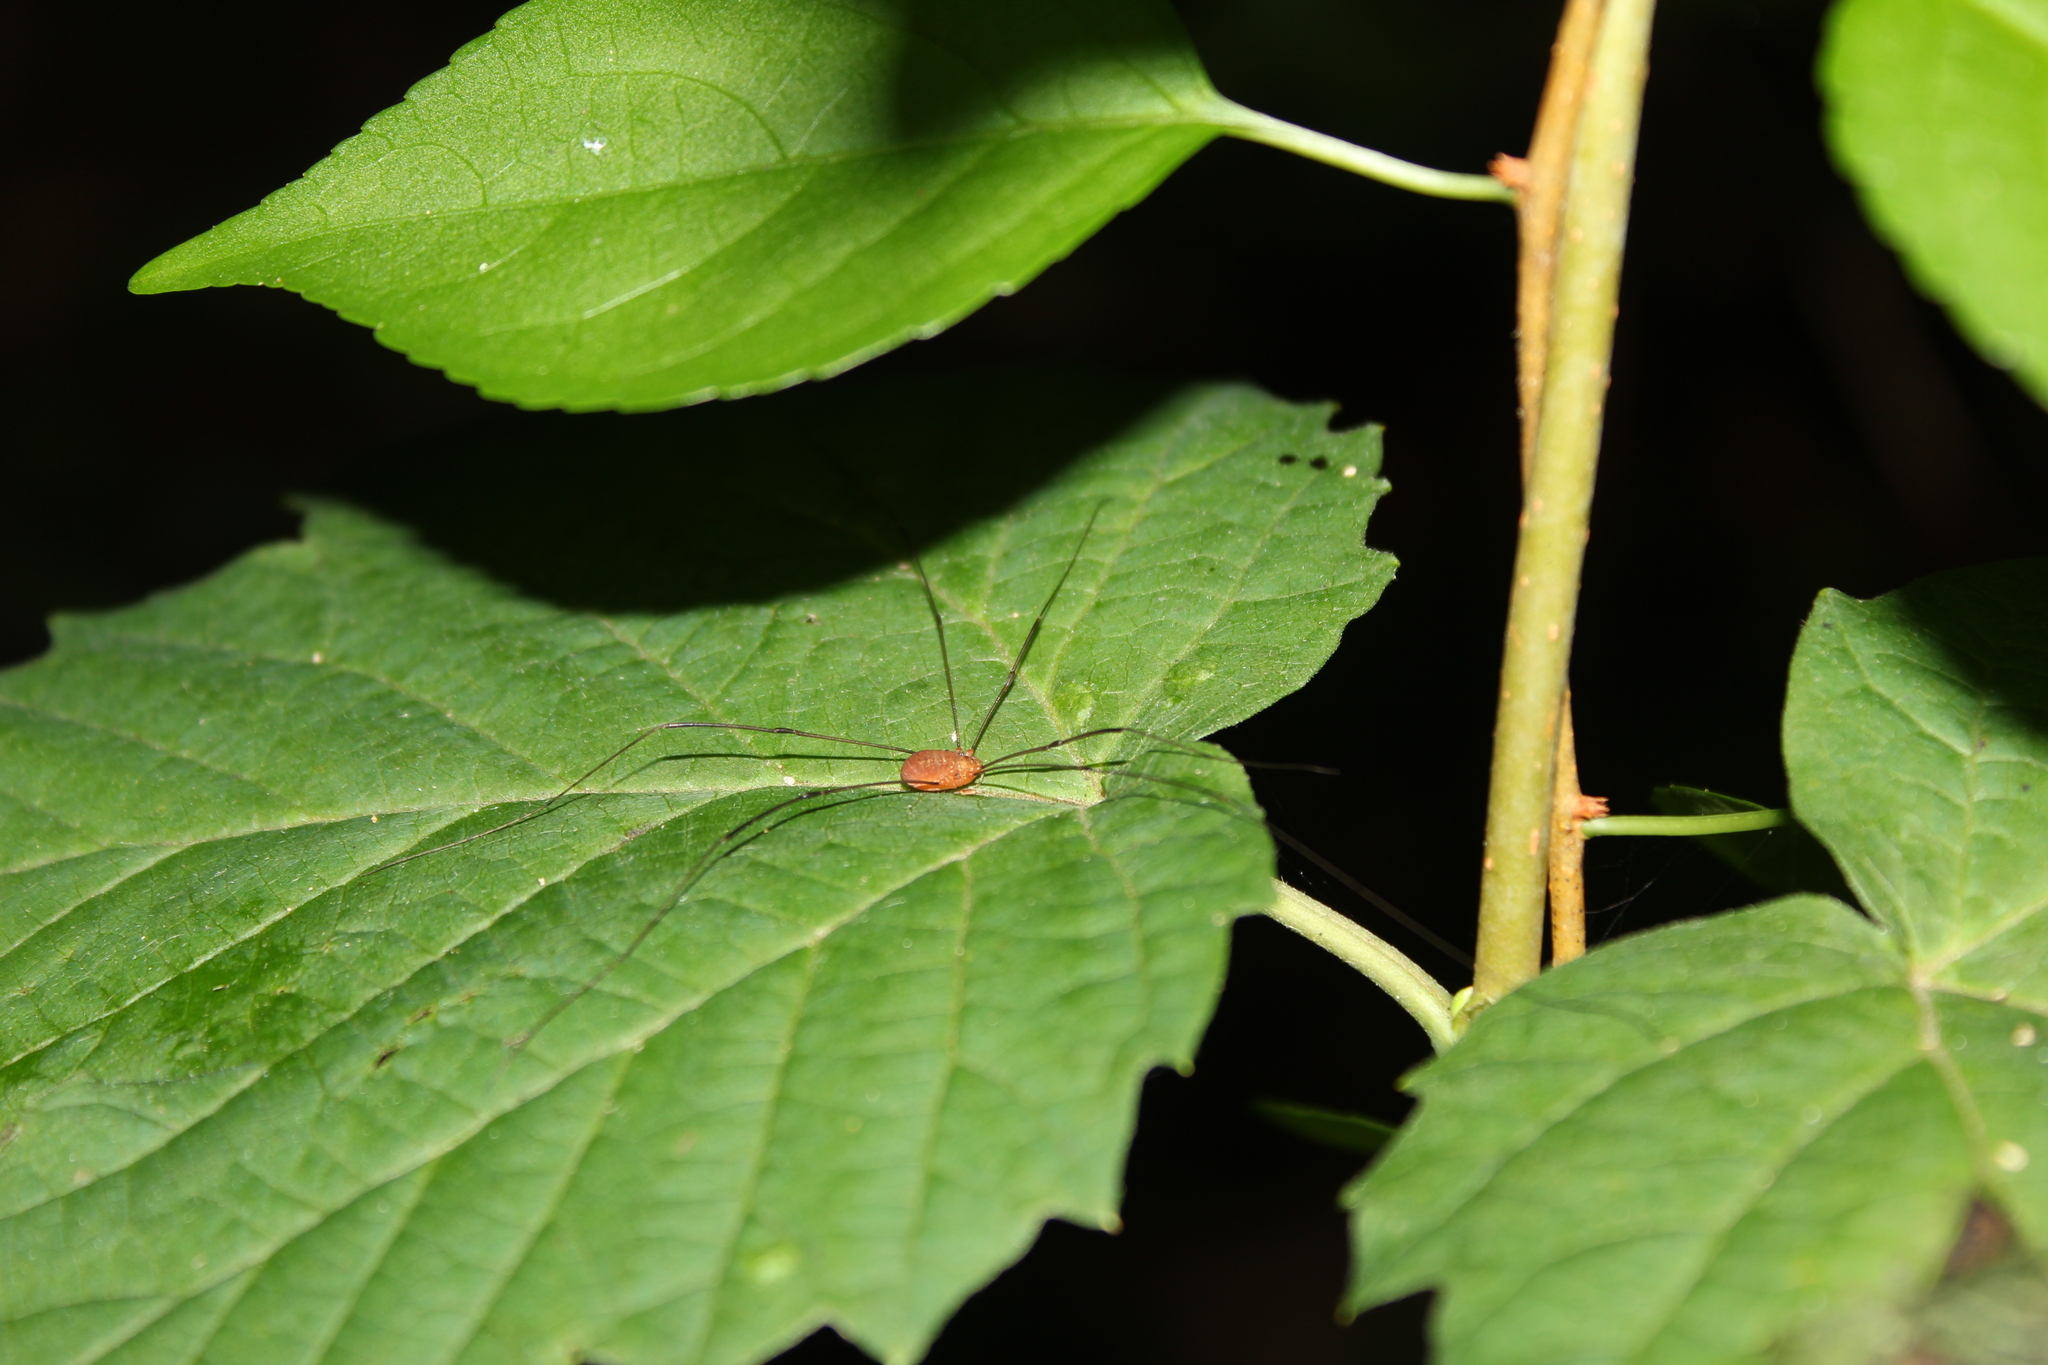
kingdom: Animalia
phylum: Arthropoda
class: Arachnida
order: Opiliones
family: Sclerosomatidae
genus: Leiobunum
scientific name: Leiobunum bracchiolum
